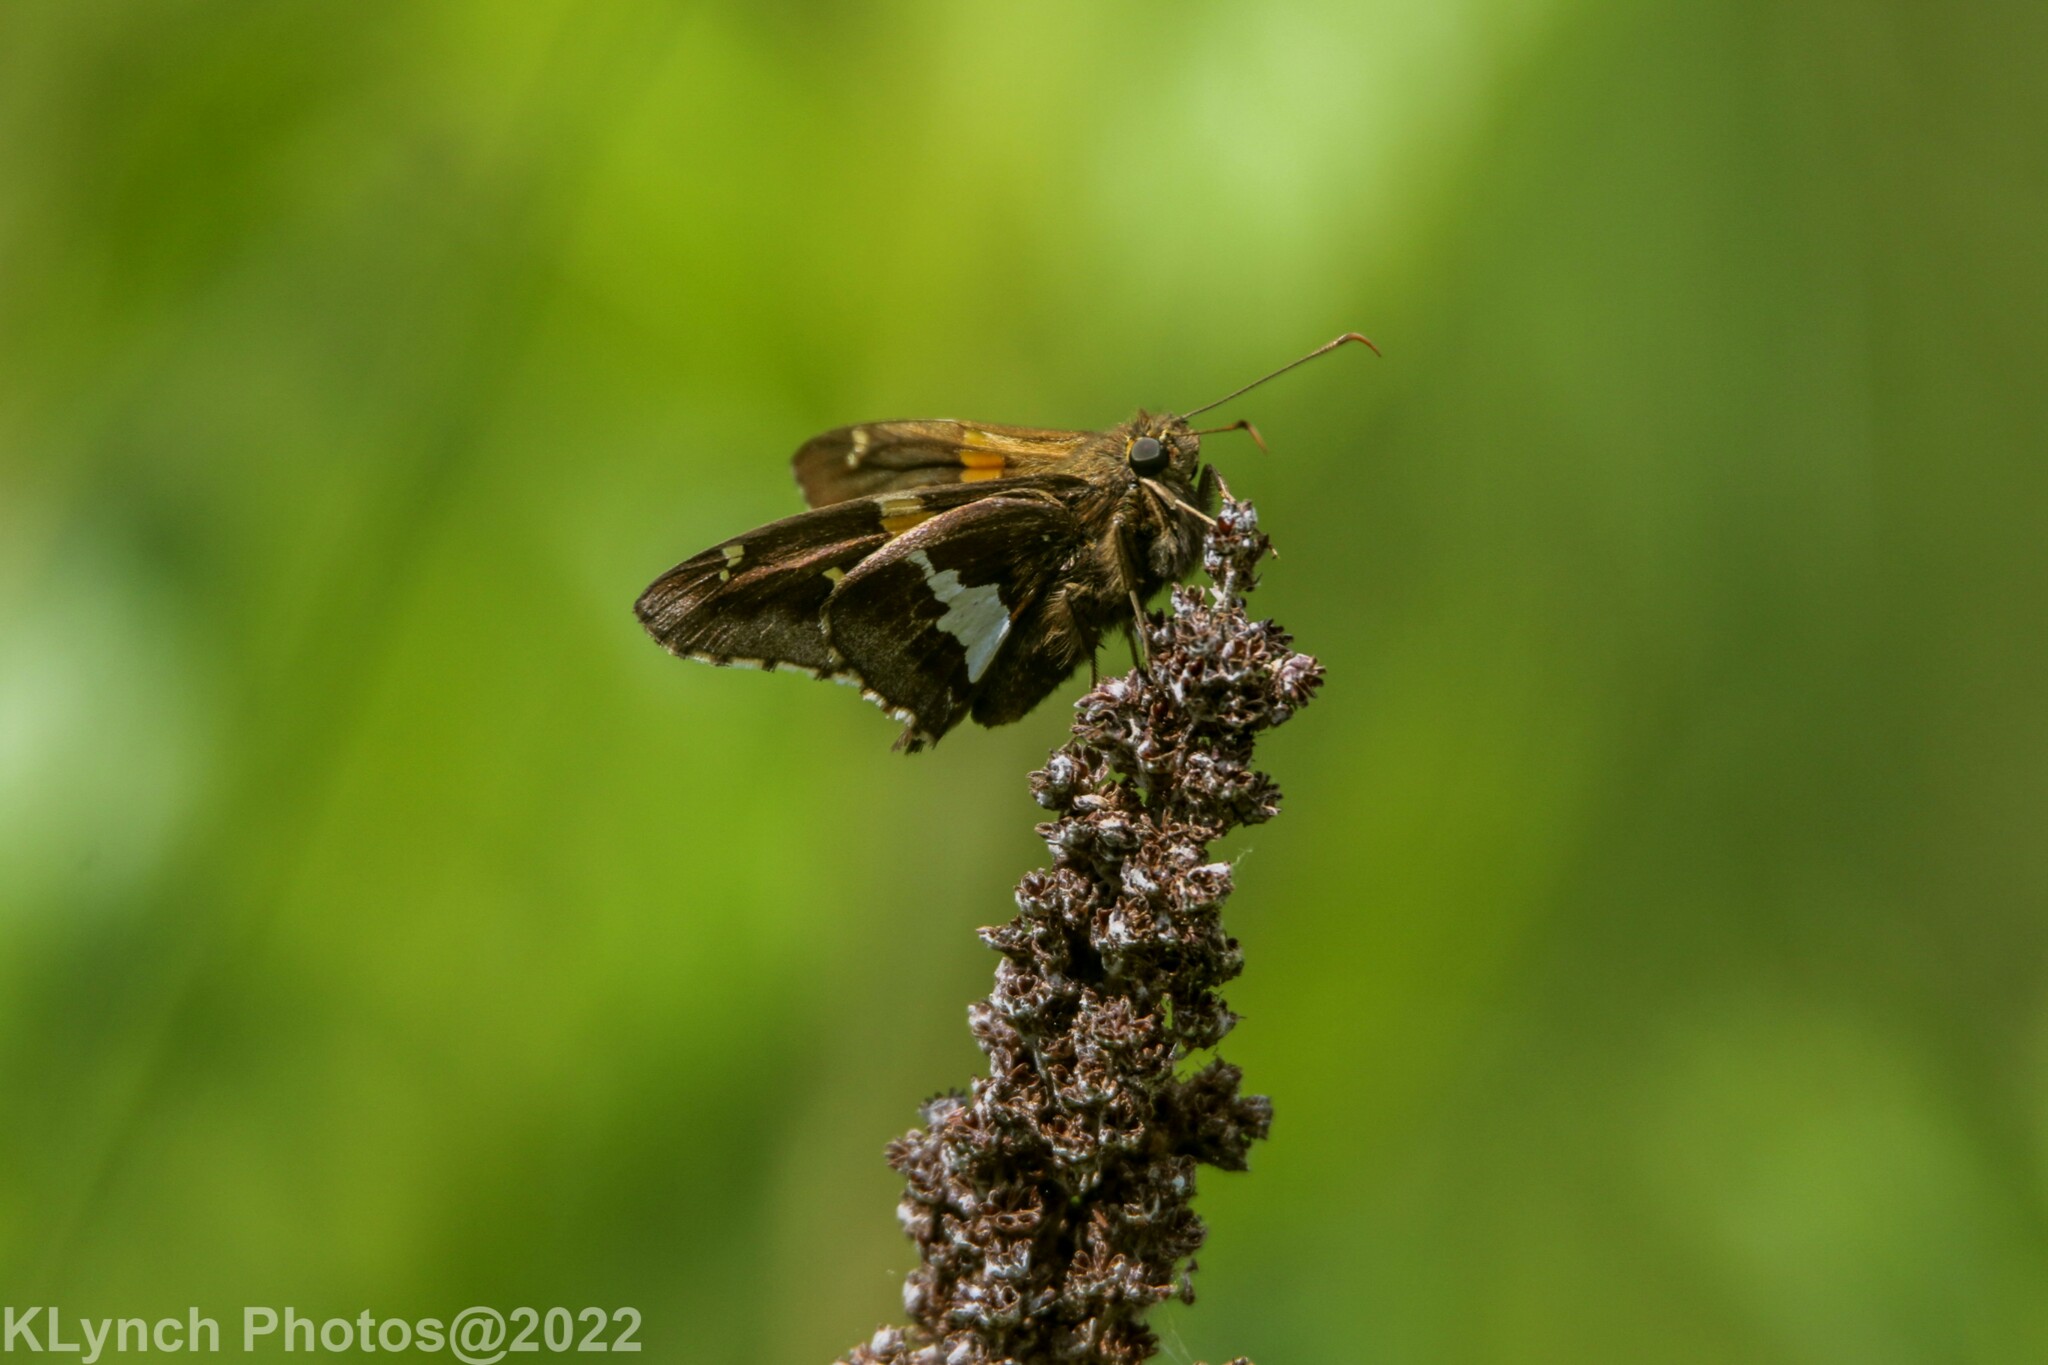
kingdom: Animalia
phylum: Arthropoda
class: Insecta
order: Lepidoptera
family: Hesperiidae
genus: Epargyreus
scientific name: Epargyreus clarus
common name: Silver-spotted skipper
